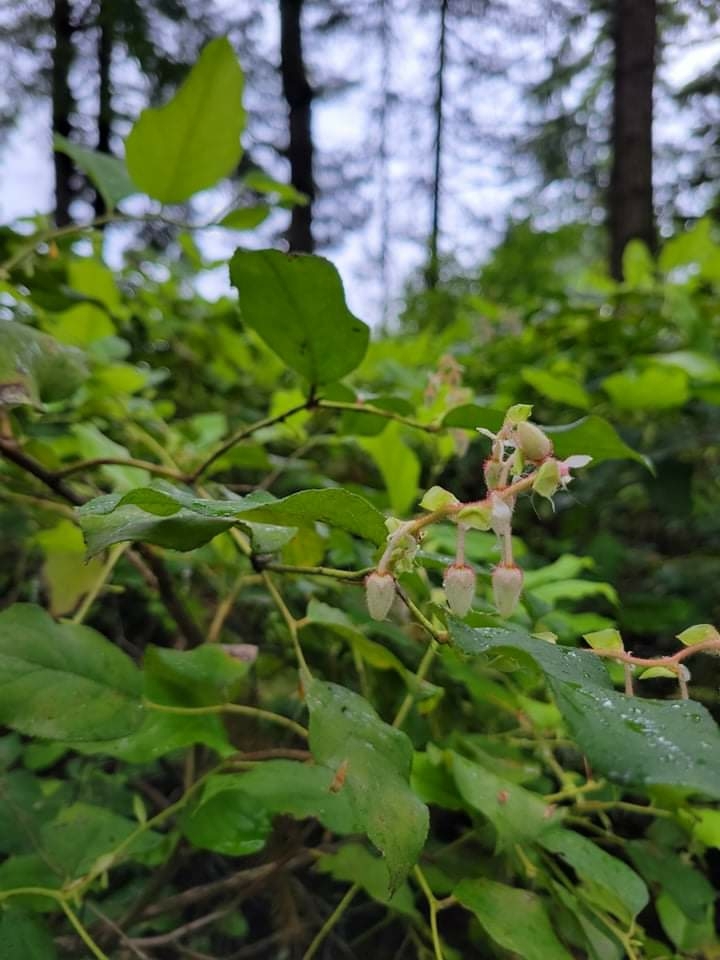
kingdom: Plantae
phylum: Tracheophyta
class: Magnoliopsida
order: Ericales
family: Ericaceae
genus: Gaultheria
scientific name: Gaultheria shallon
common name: Shallon
